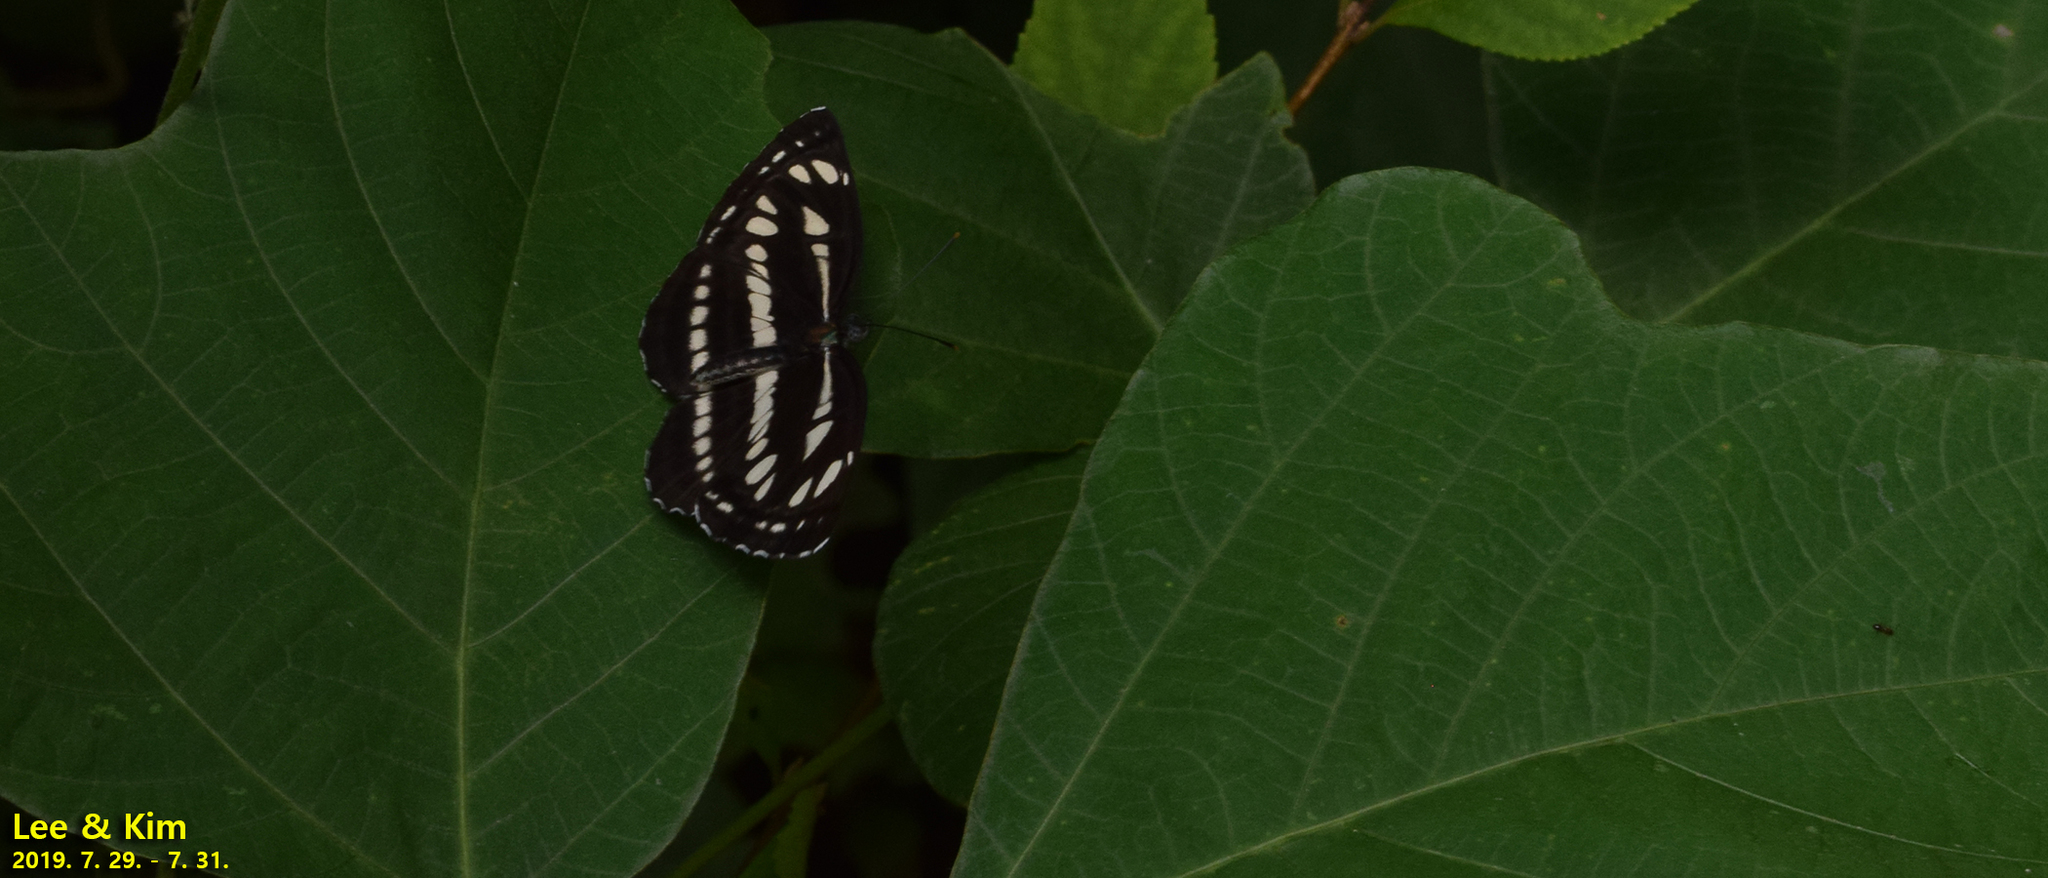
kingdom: Animalia
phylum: Arthropoda
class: Insecta
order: Lepidoptera
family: Nymphalidae
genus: Neptis
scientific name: Neptis sappho
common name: Common glider
